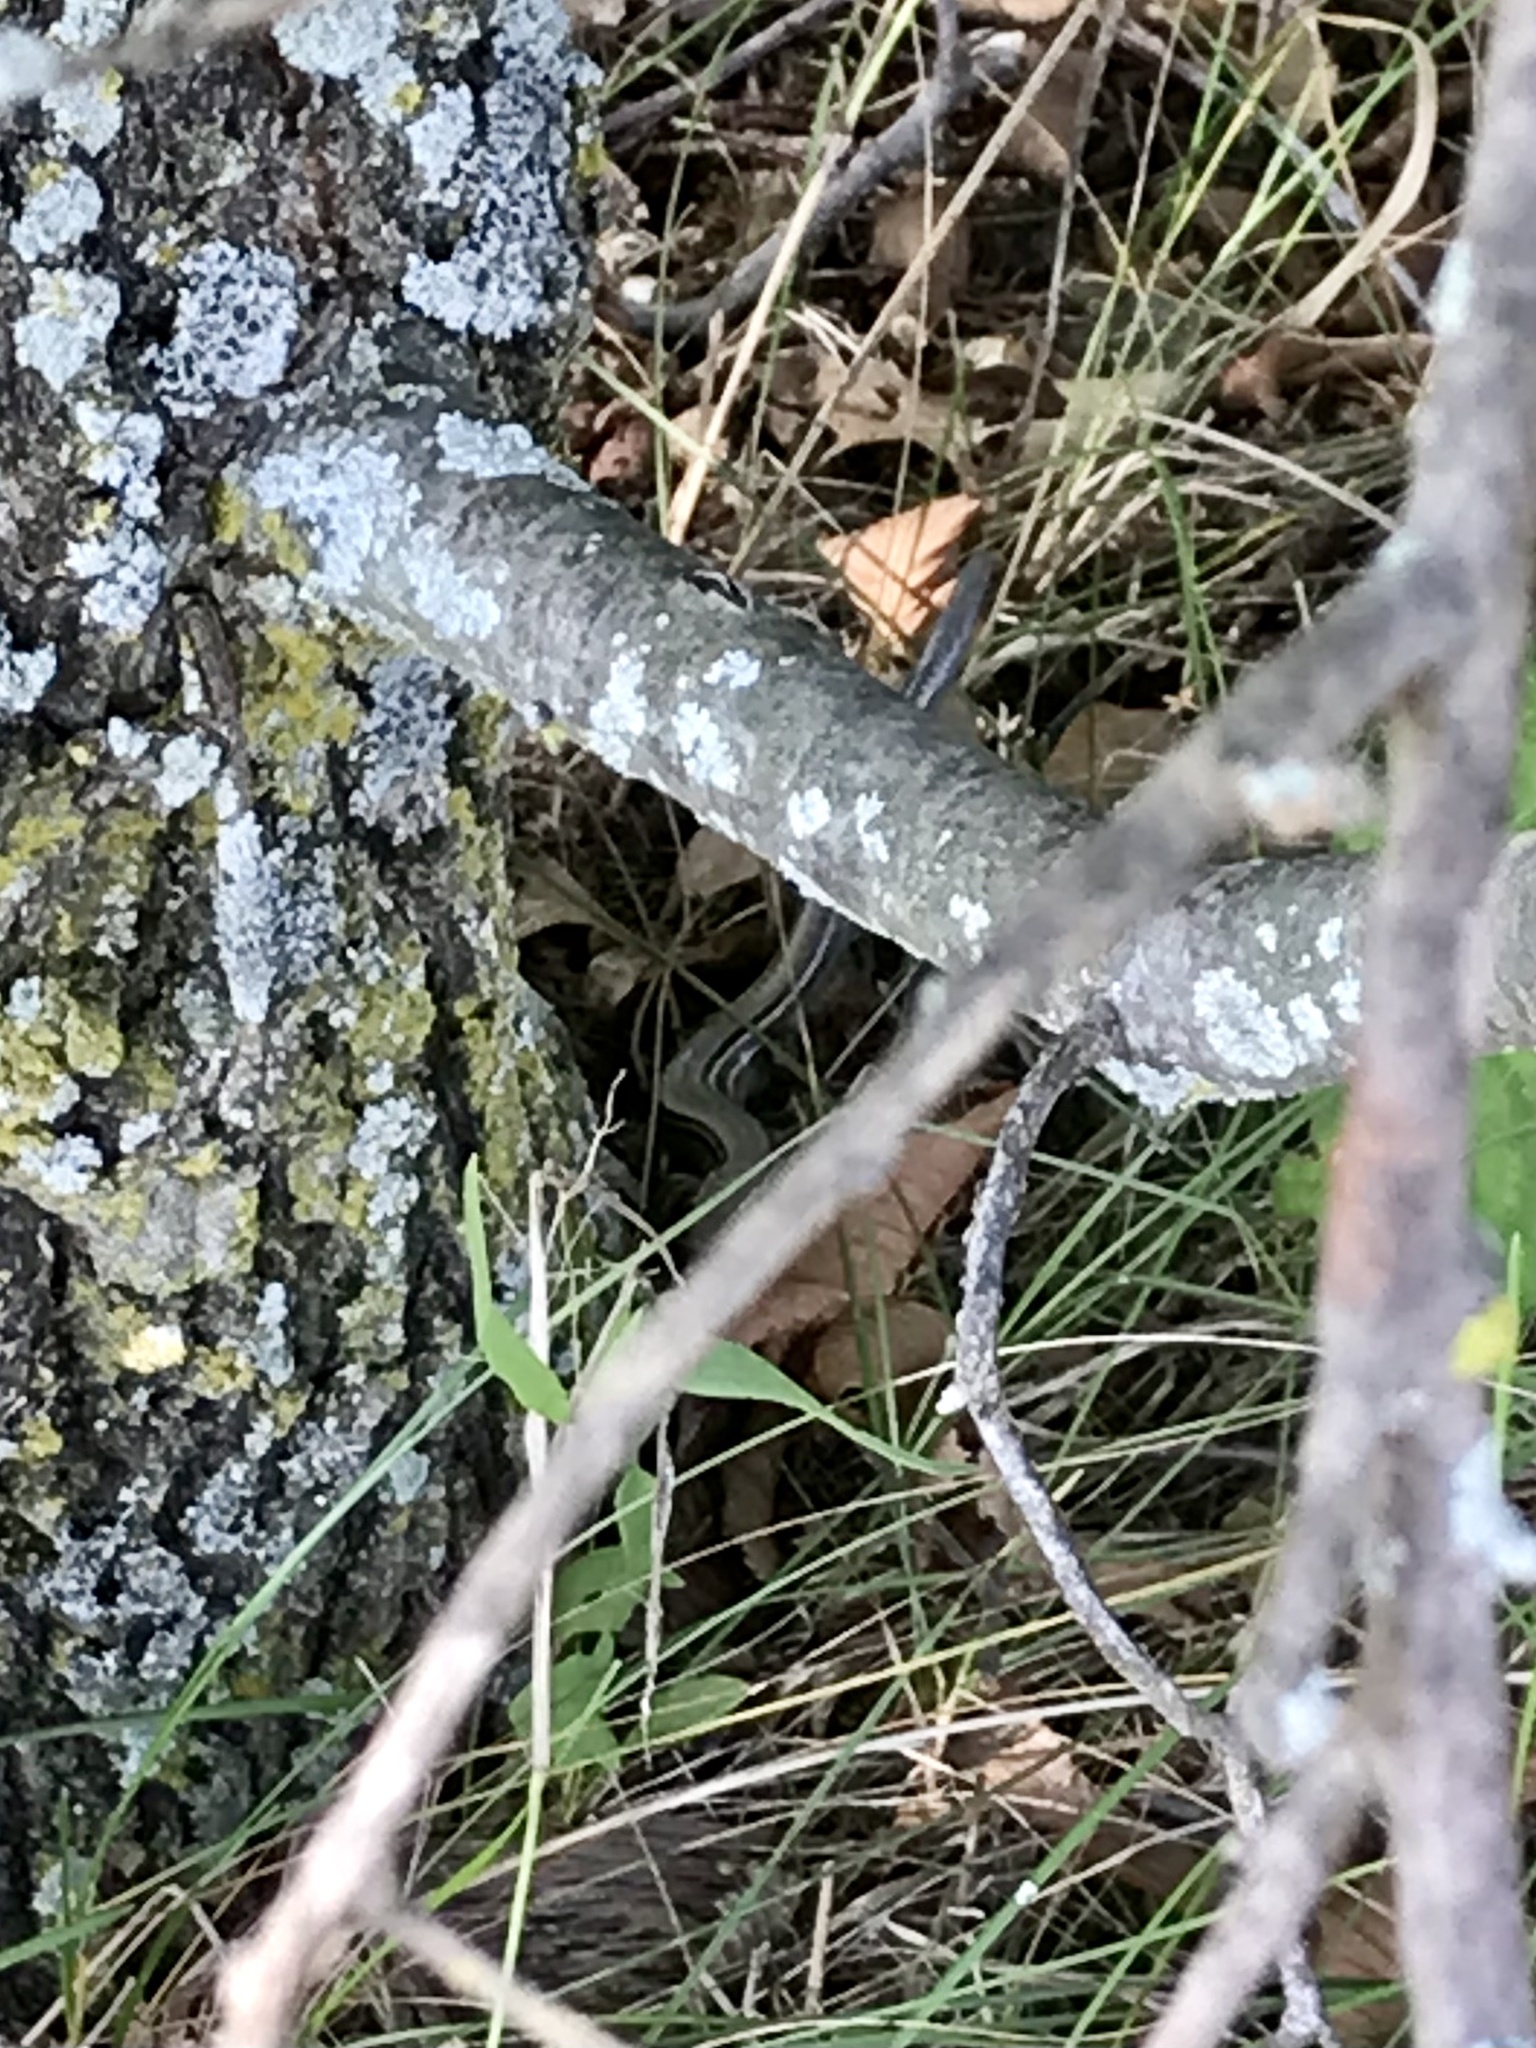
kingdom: Animalia
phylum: Chordata
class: Squamata
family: Scincidae
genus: Plestiodon
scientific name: Plestiodon septentrionalis
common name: Northern prairie skink
